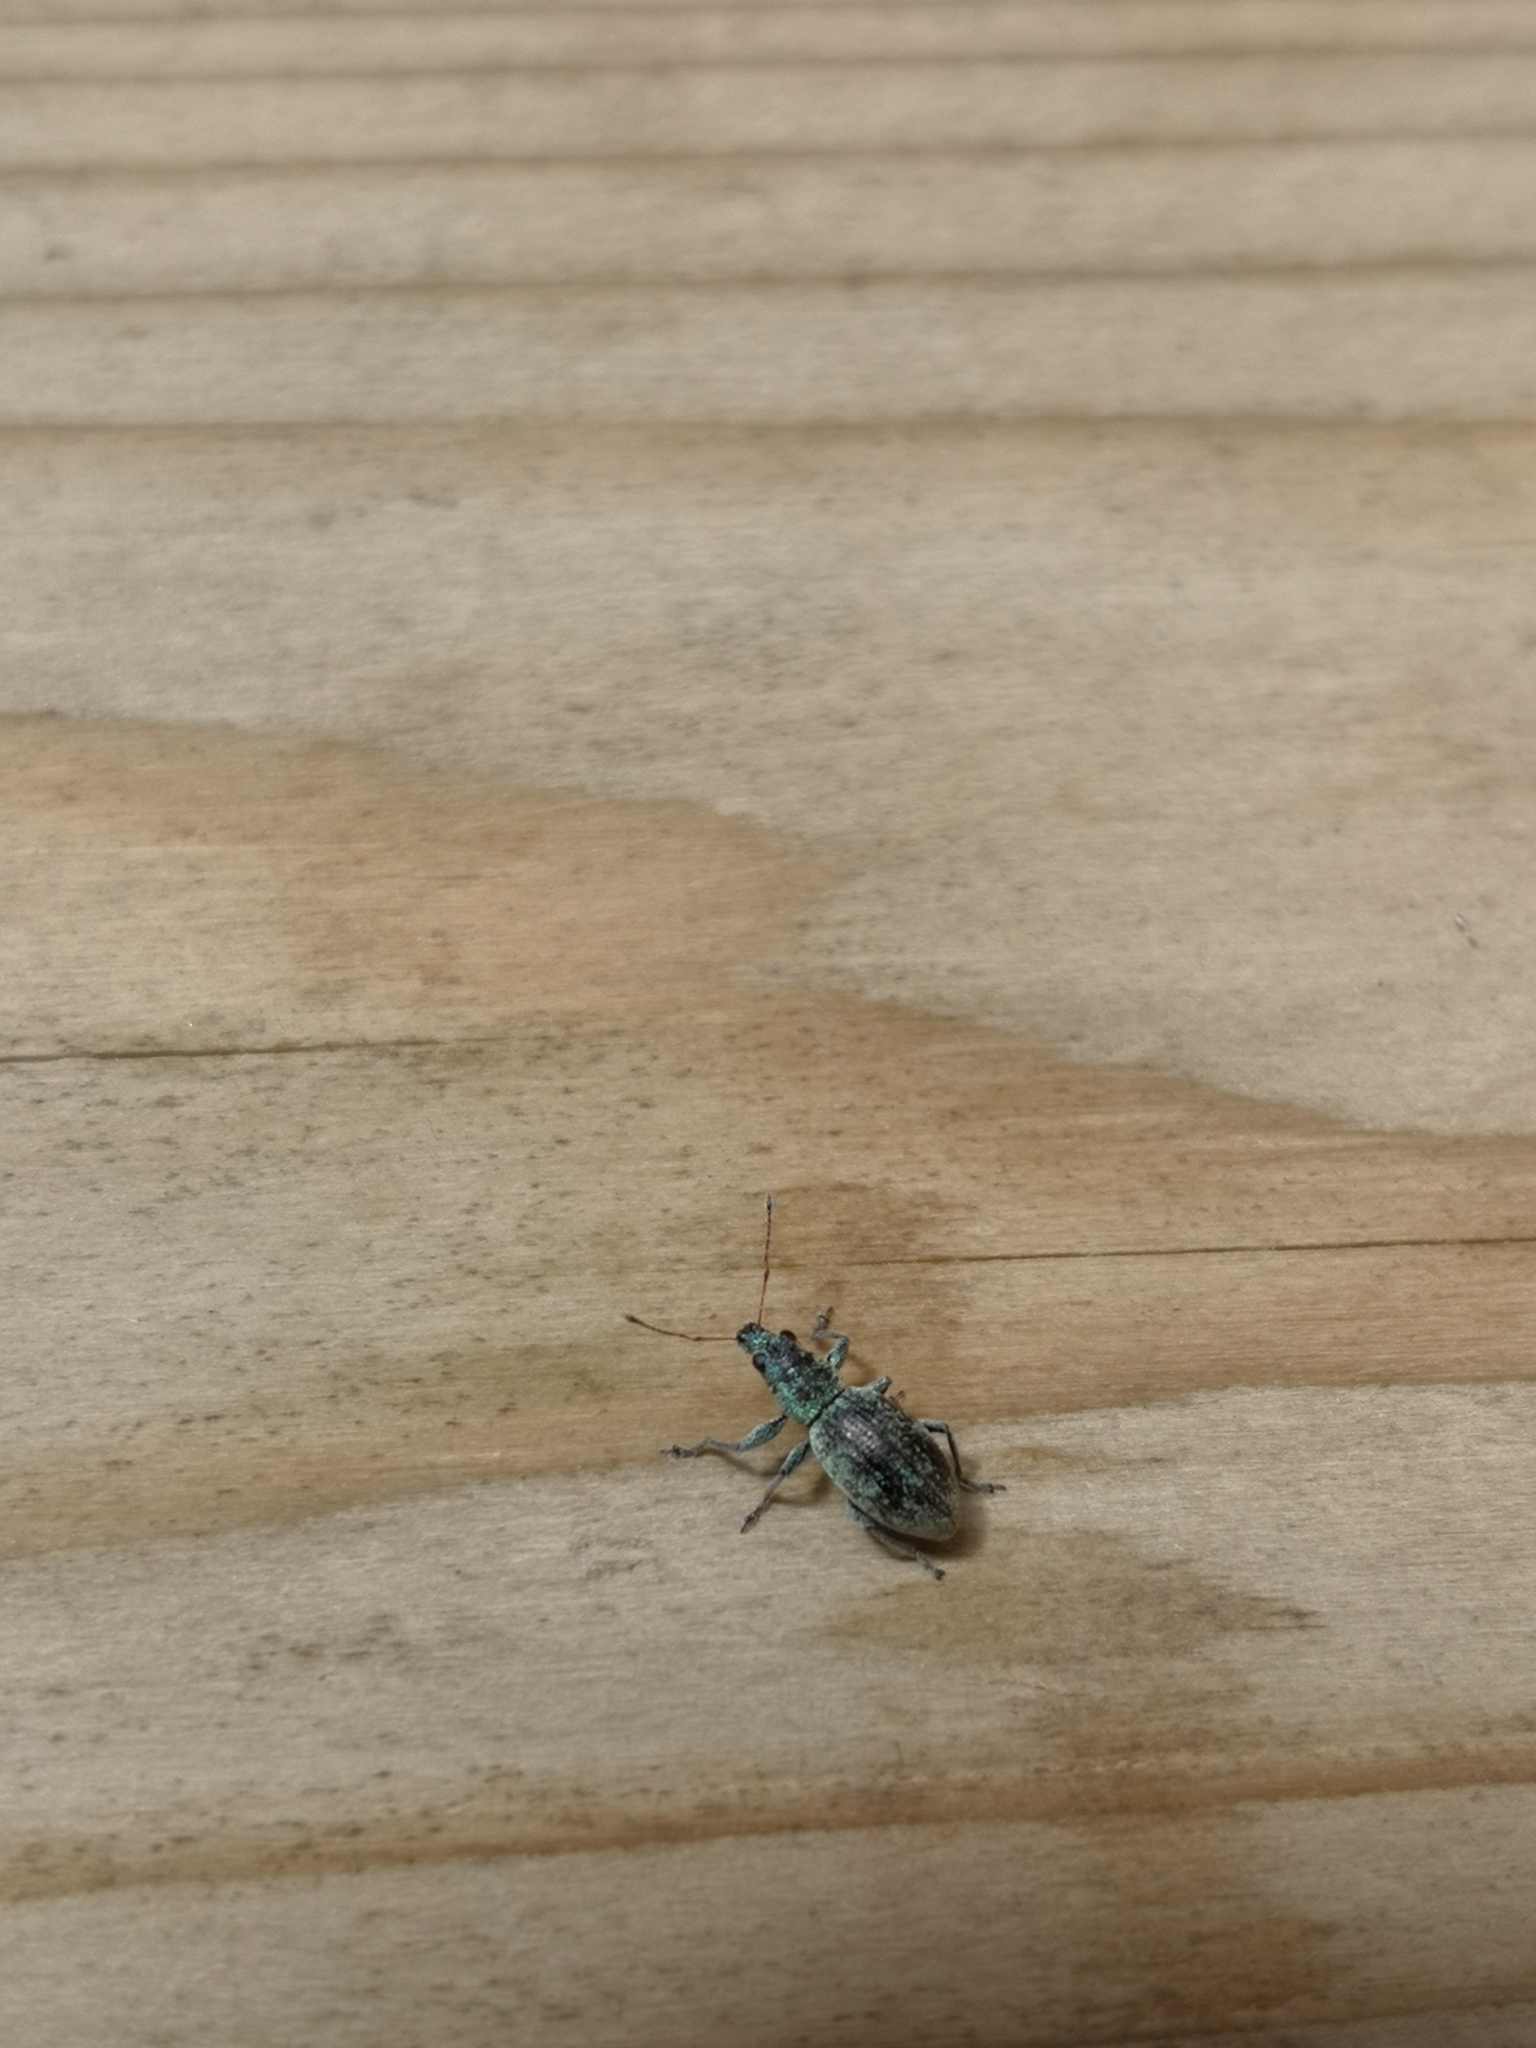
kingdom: Animalia
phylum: Arthropoda
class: Insecta
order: Coleoptera
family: Curculionidae
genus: Eusomus
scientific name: Eusomus ovulum
